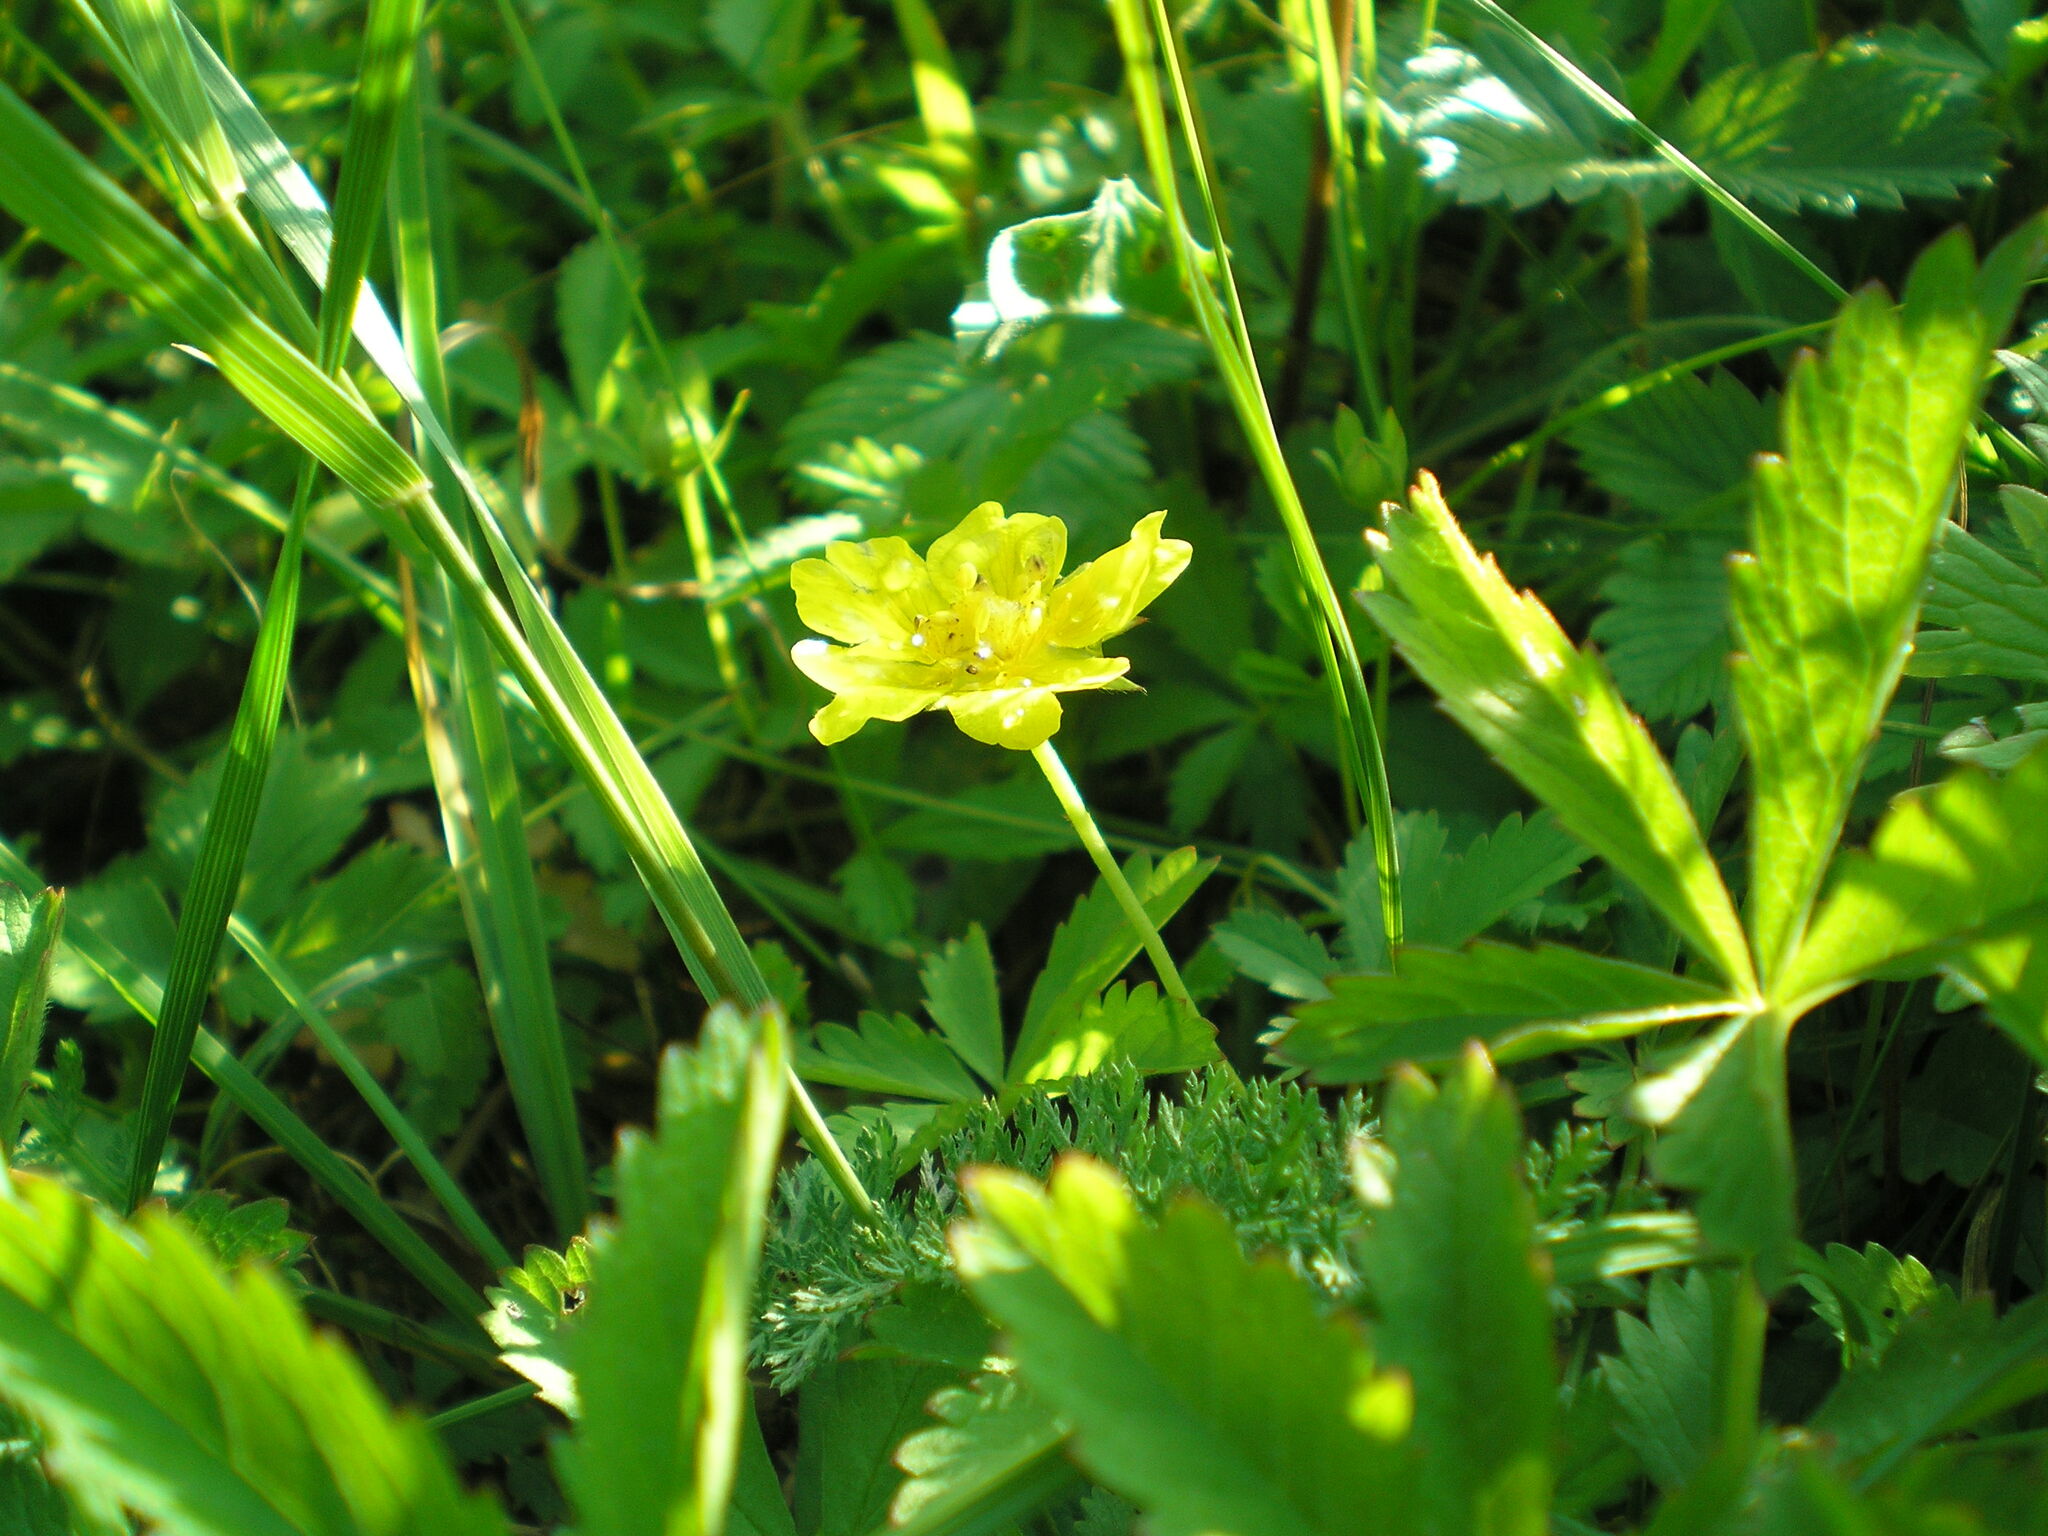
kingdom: Plantae
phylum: Tracheophyta
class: Magnoliopsida
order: Rosales
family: Rosaceae
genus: Potentilla
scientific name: Potentilla reptans
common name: Creeping cinquefoil
